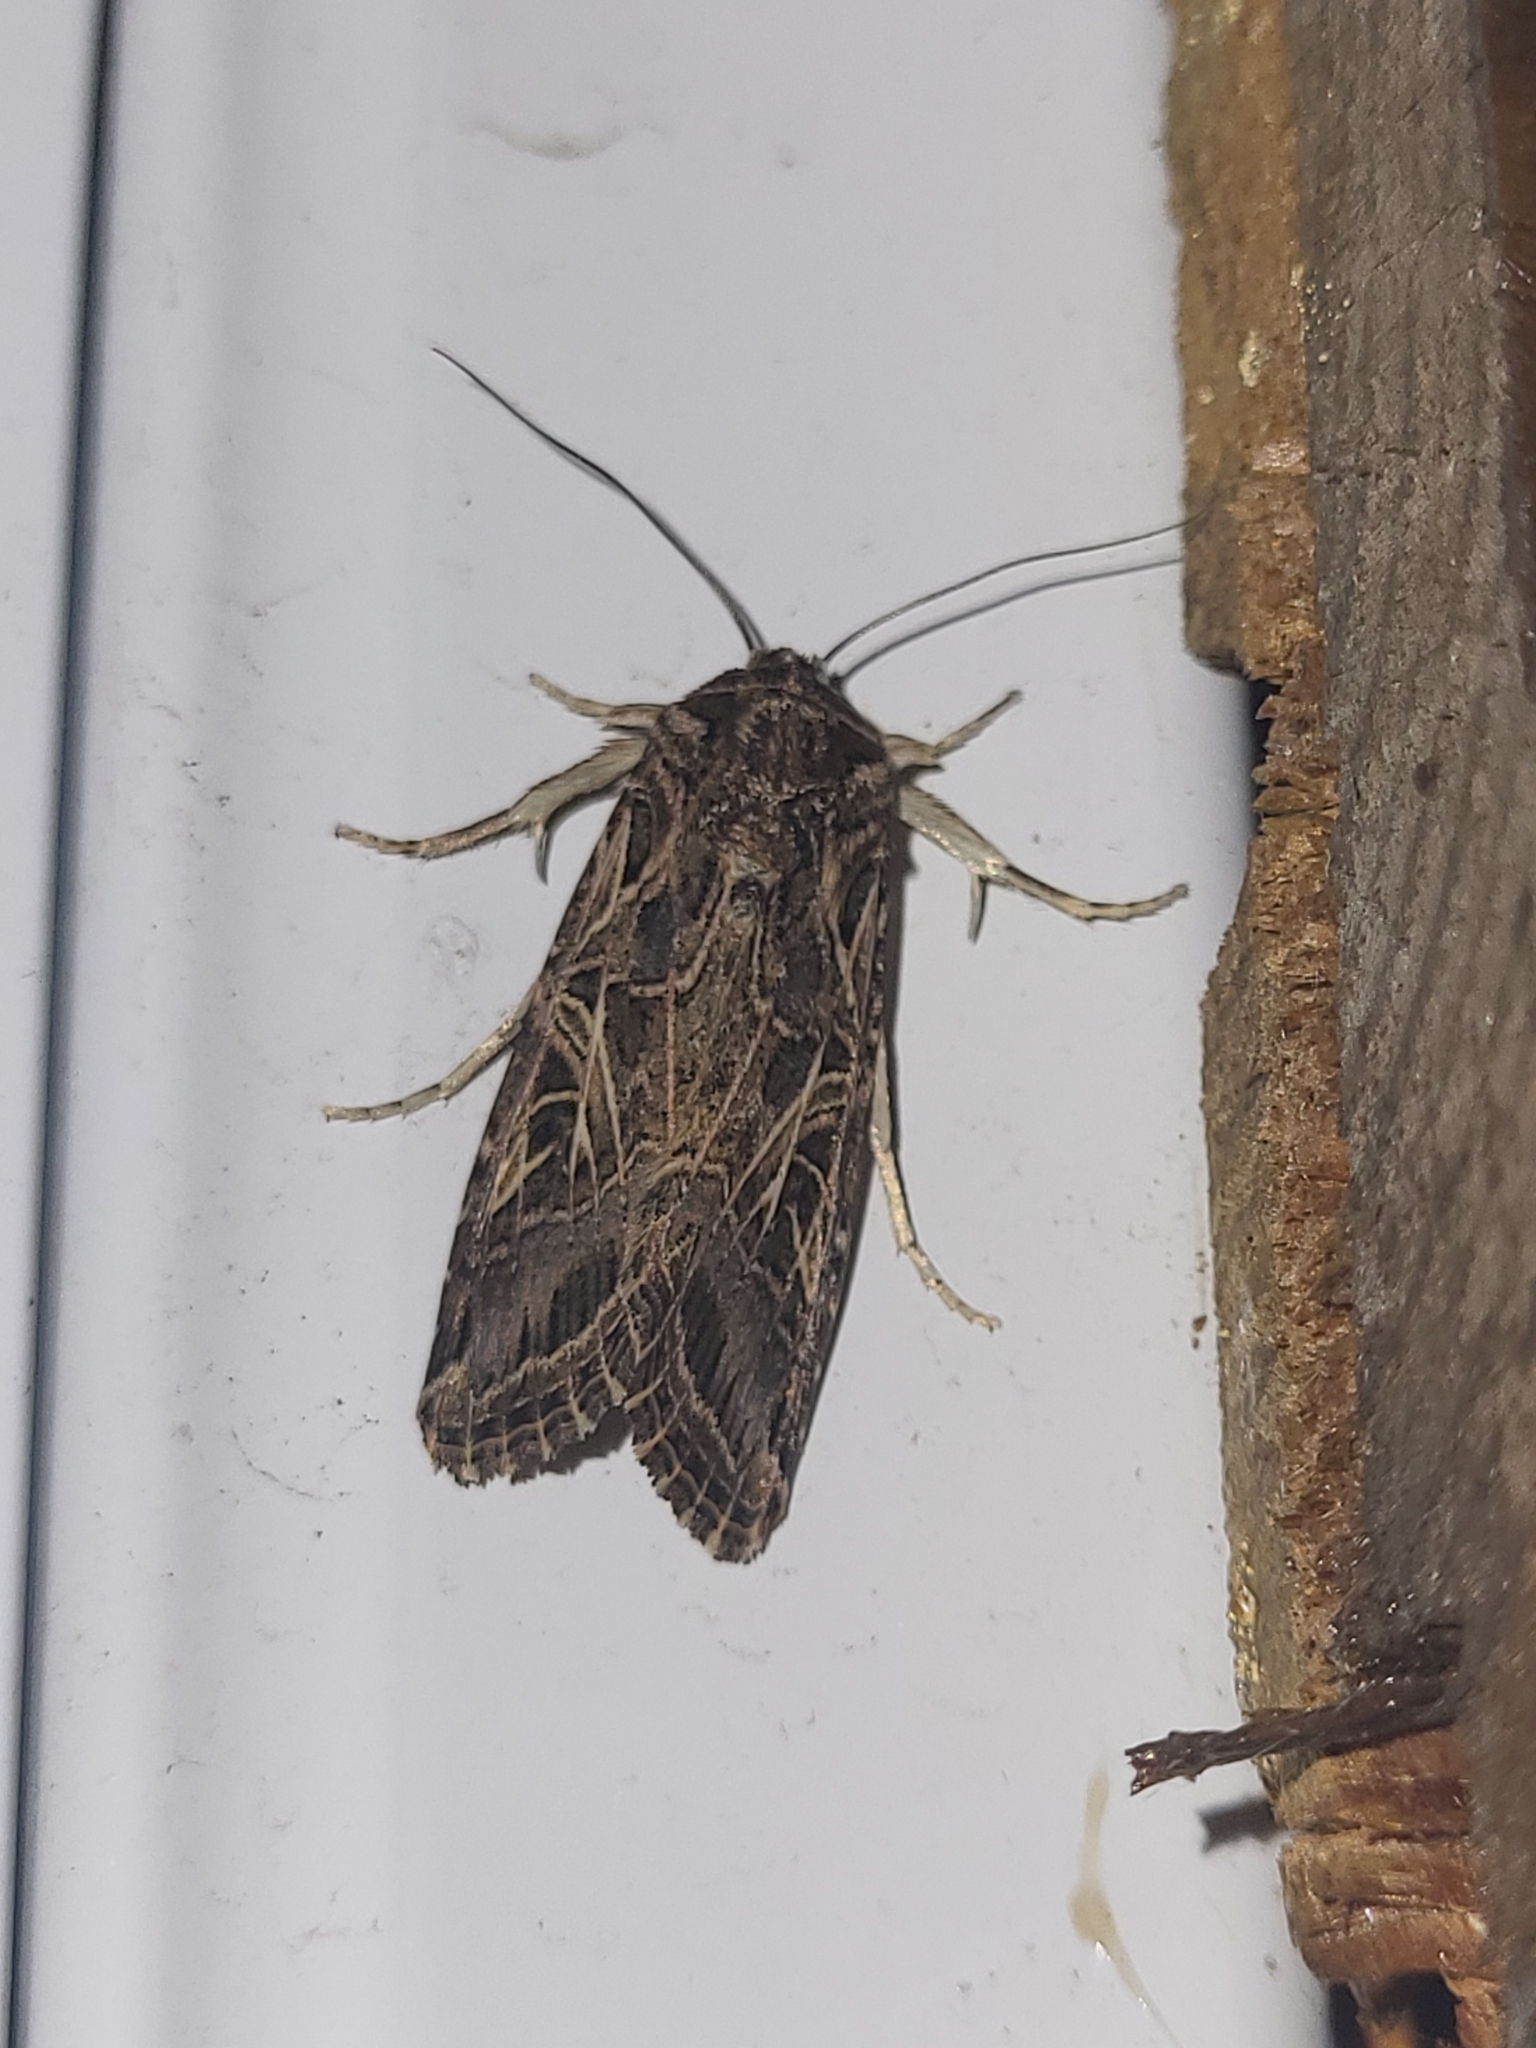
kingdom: Animalia
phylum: Arthropoda
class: Insecta
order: Lepidoptera
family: Noctuidae
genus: Spodoptera
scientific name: Spodoptera littoralis
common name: Egyptian cotton leafworm
